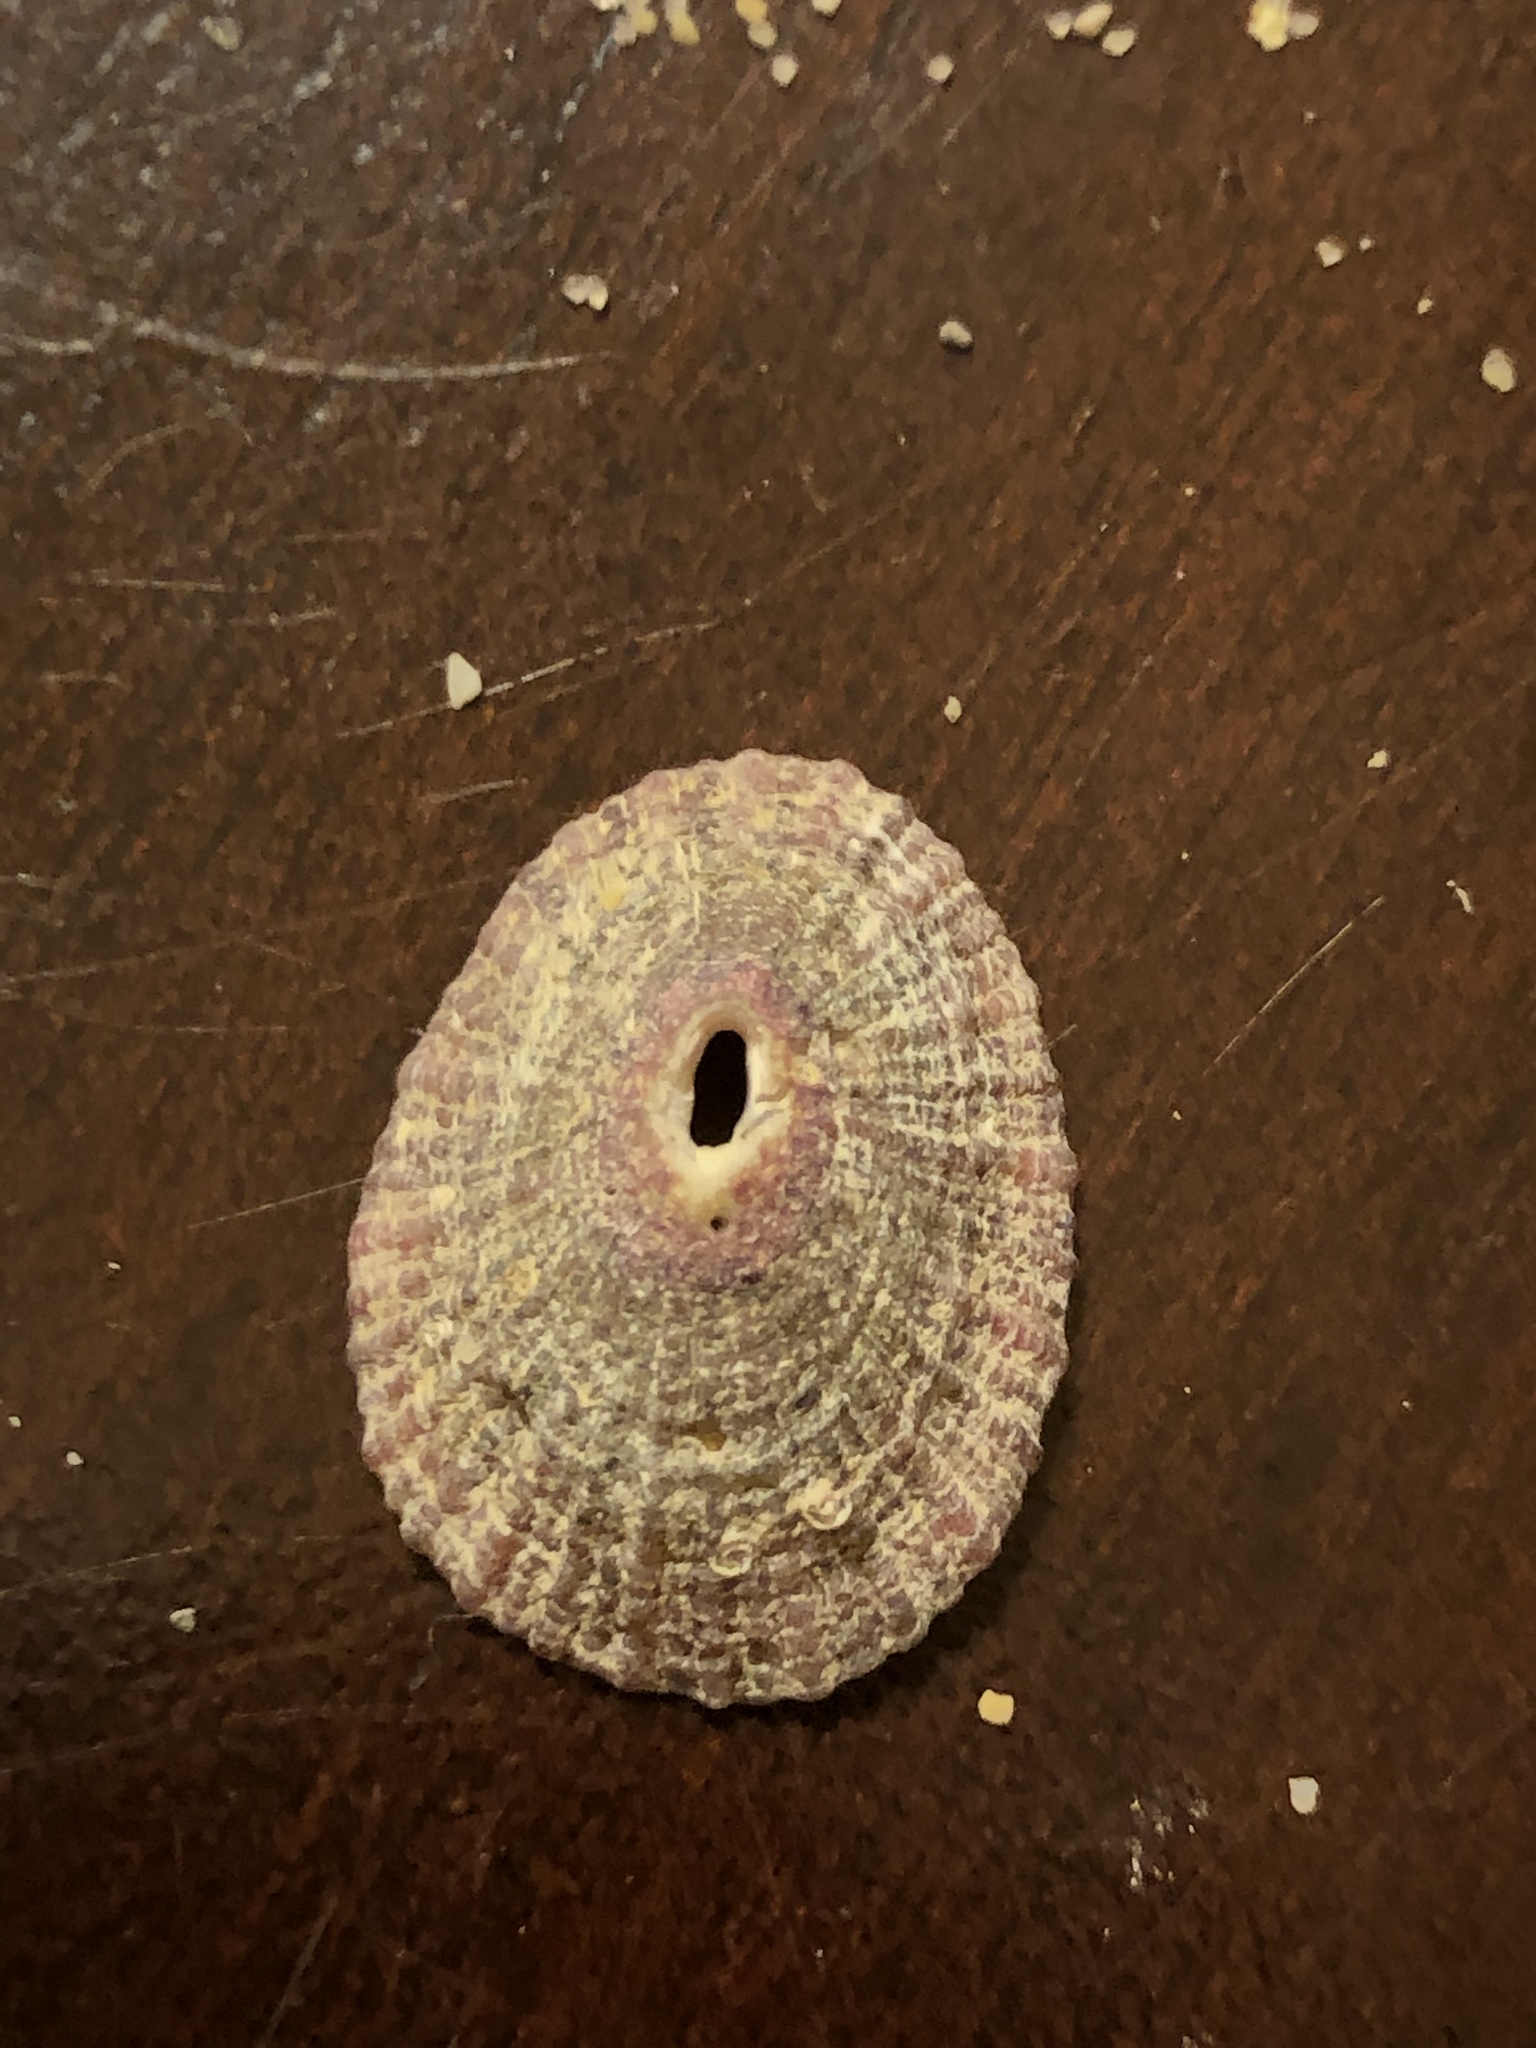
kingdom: Animalia
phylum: Mollusca
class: Gastropoda
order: Lepetellida
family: Fissurellidae
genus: Fissurella
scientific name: Fissurella volcano
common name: Volcano keyhole limpet
